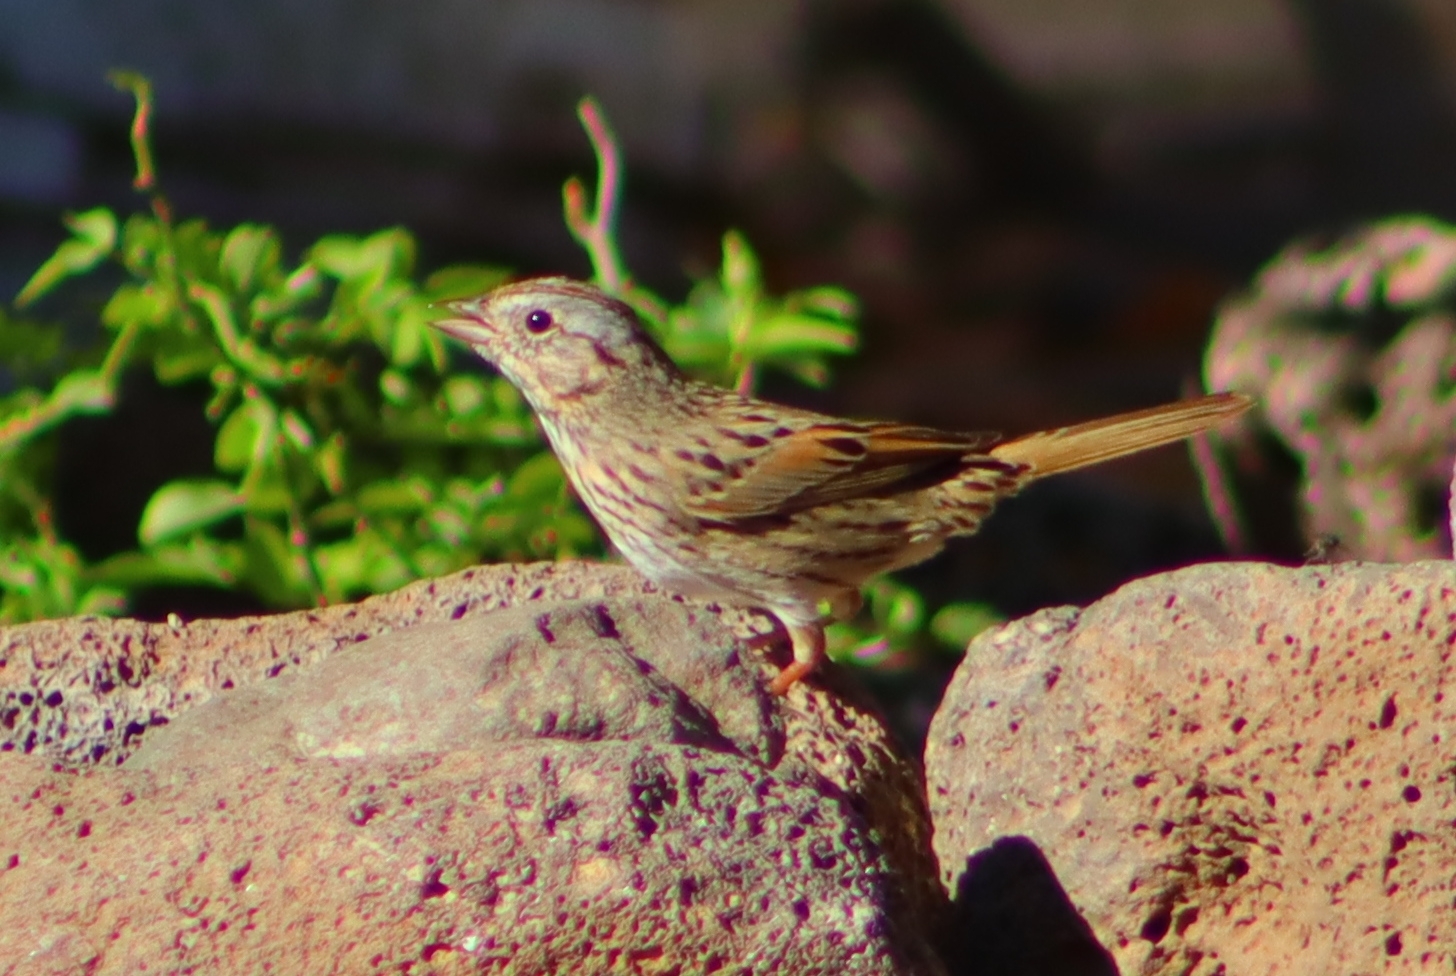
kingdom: Animalia
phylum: Chordata
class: Aves
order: Passeriformes
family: Passerellidae
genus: Melospiza
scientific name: Melospiza lincolnii
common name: Lincoln's sparrow
